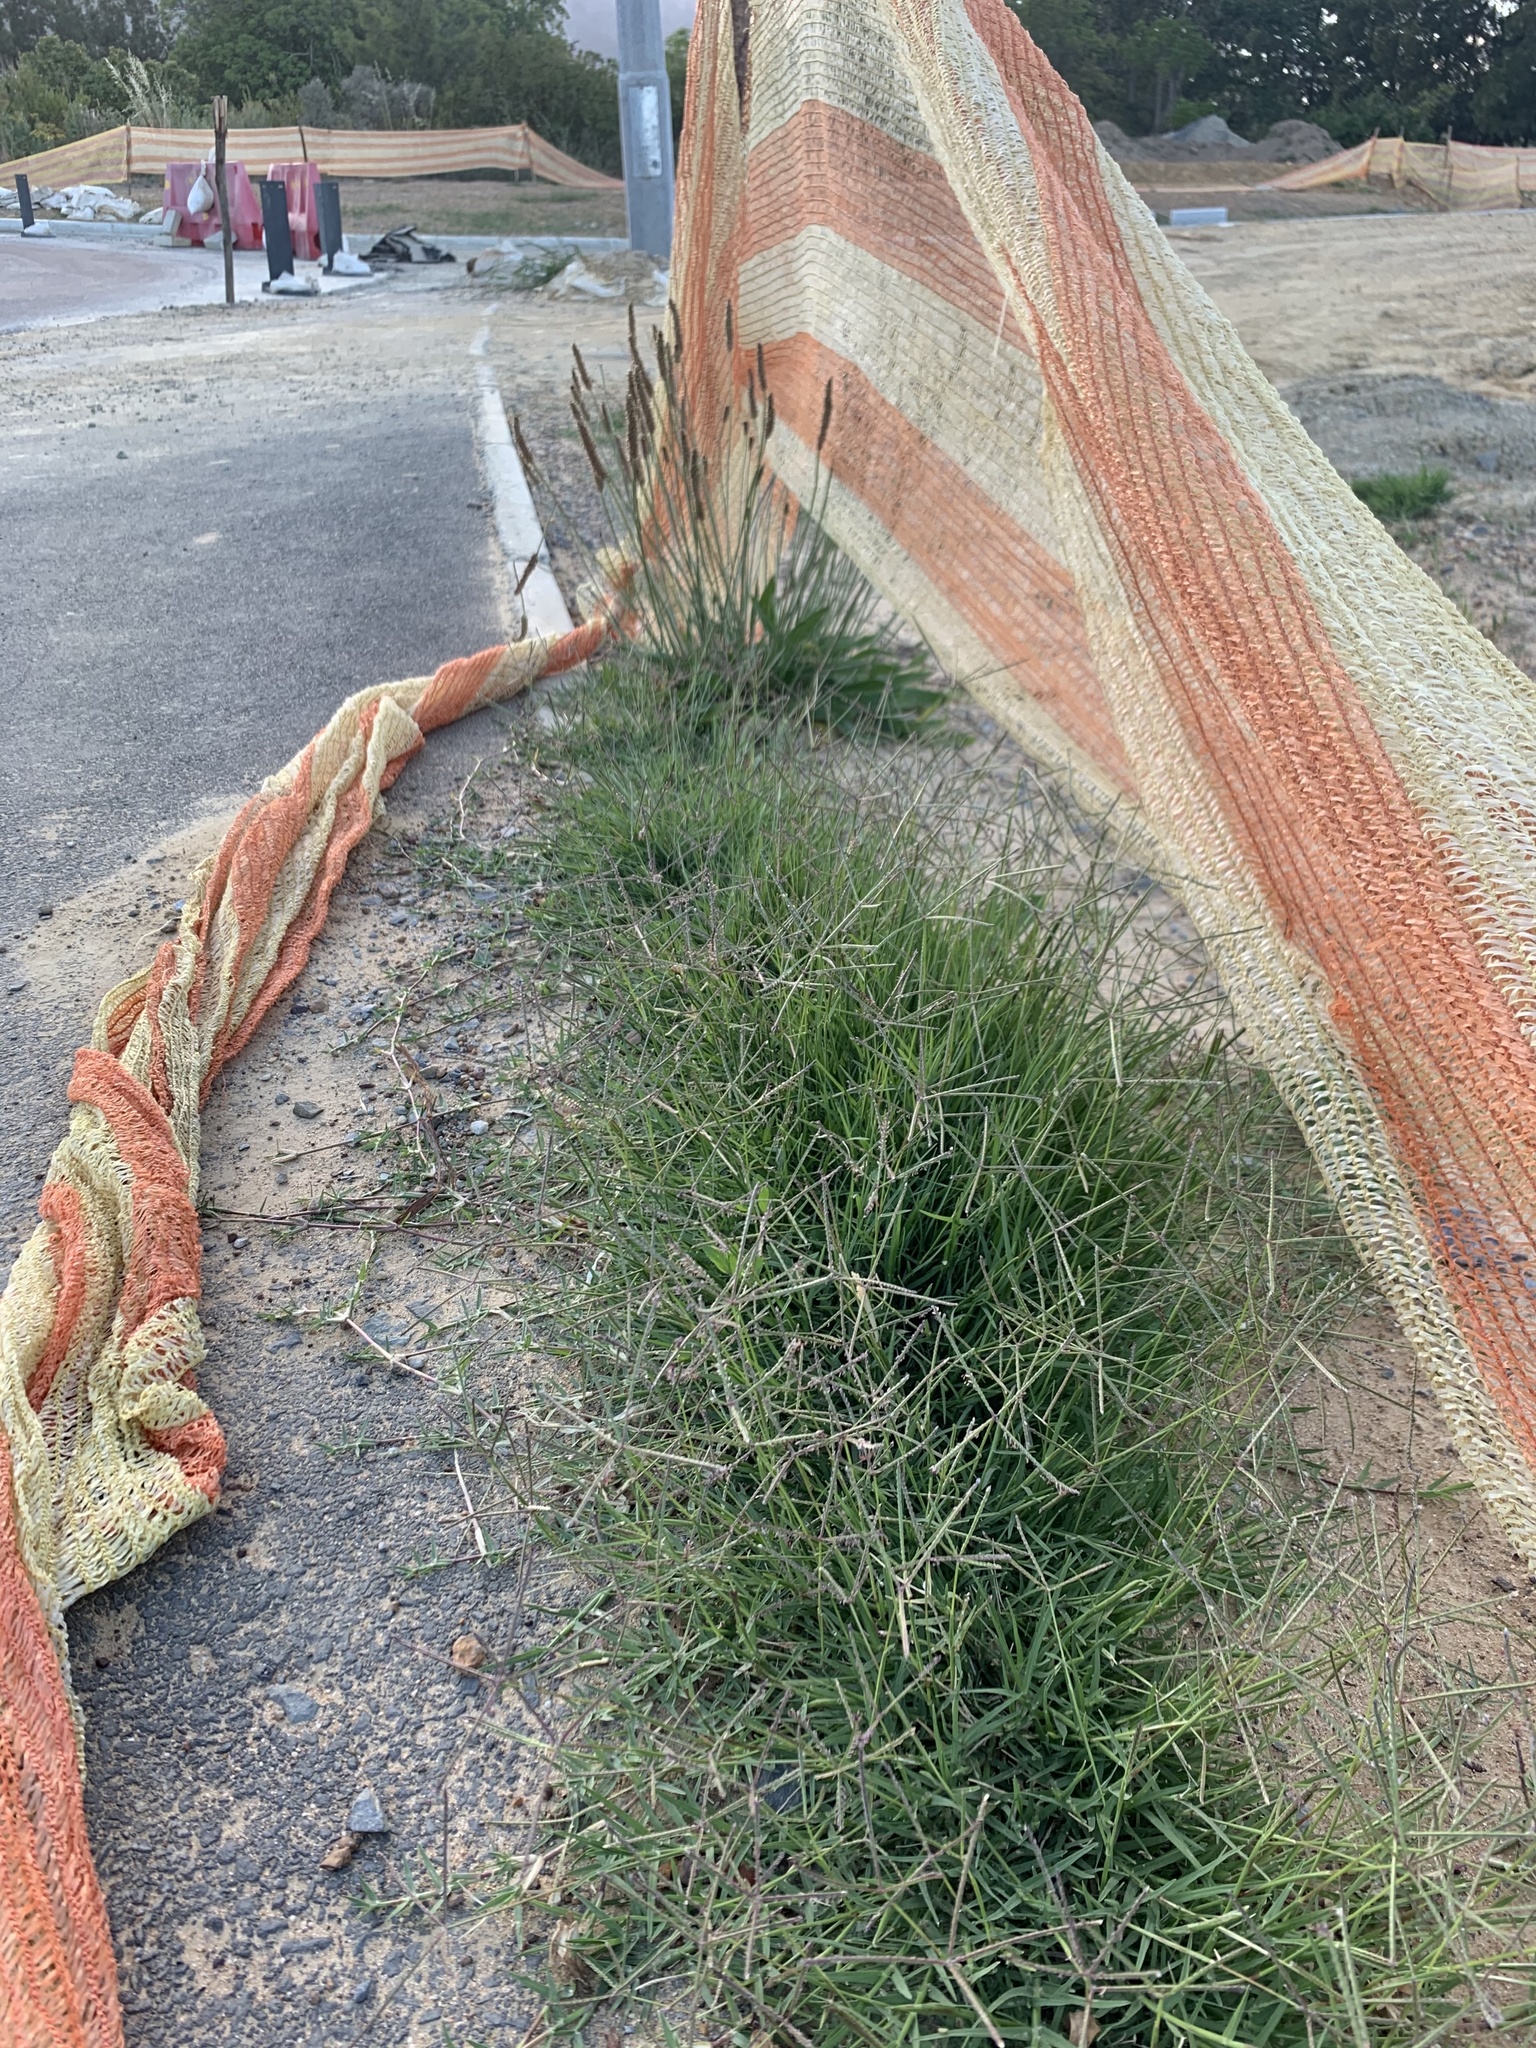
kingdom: Plantae
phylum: Tracheophyta
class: Liliopsida
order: Poales
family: Poaceae
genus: Cynodon
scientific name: Cynodon dactylon
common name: Bermuda grass
